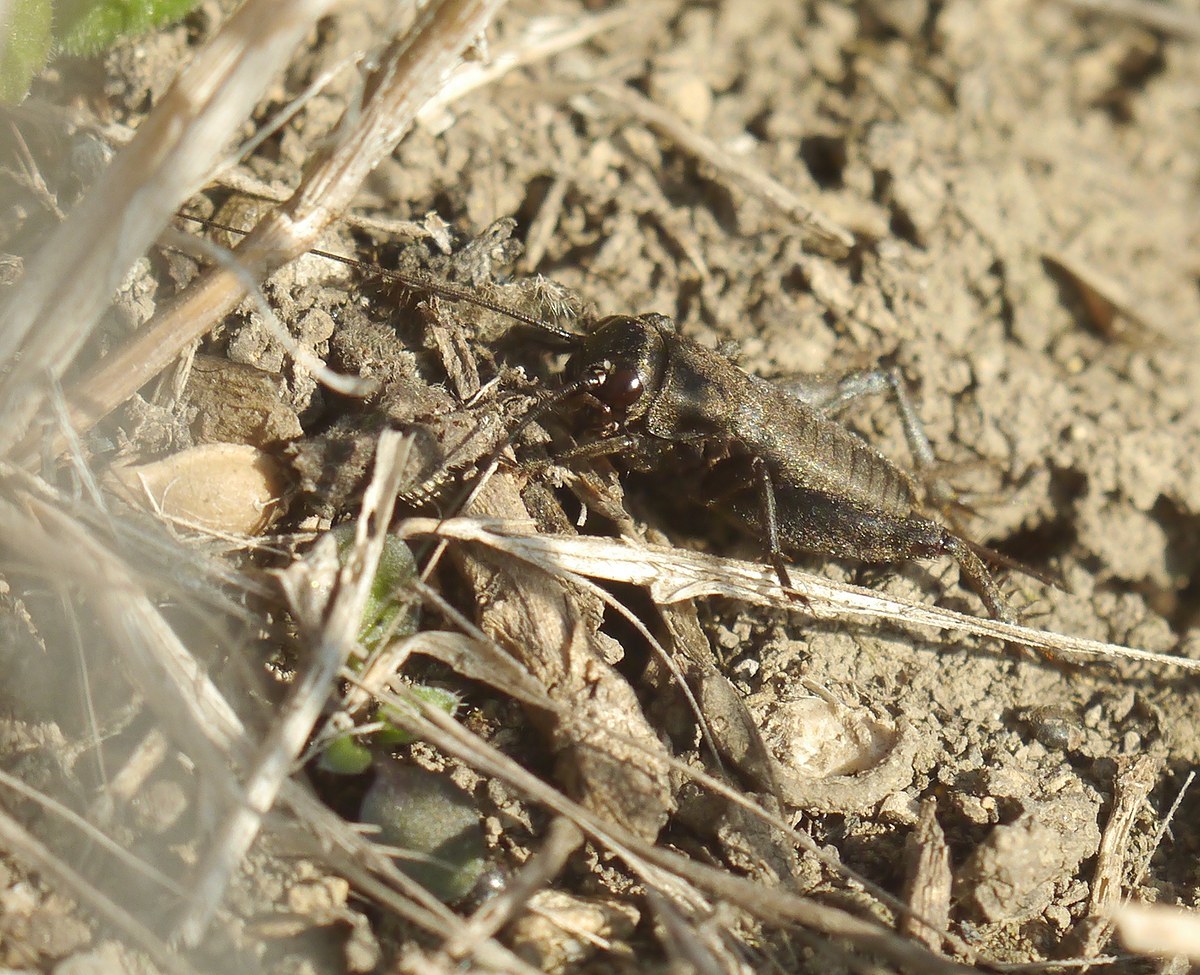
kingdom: Animalia
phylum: Arthropoda
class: Insecta
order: Orthoptera
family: Gryllidae
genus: Melanogryllus
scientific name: Melanogryllus desertus
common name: Desert cricket
